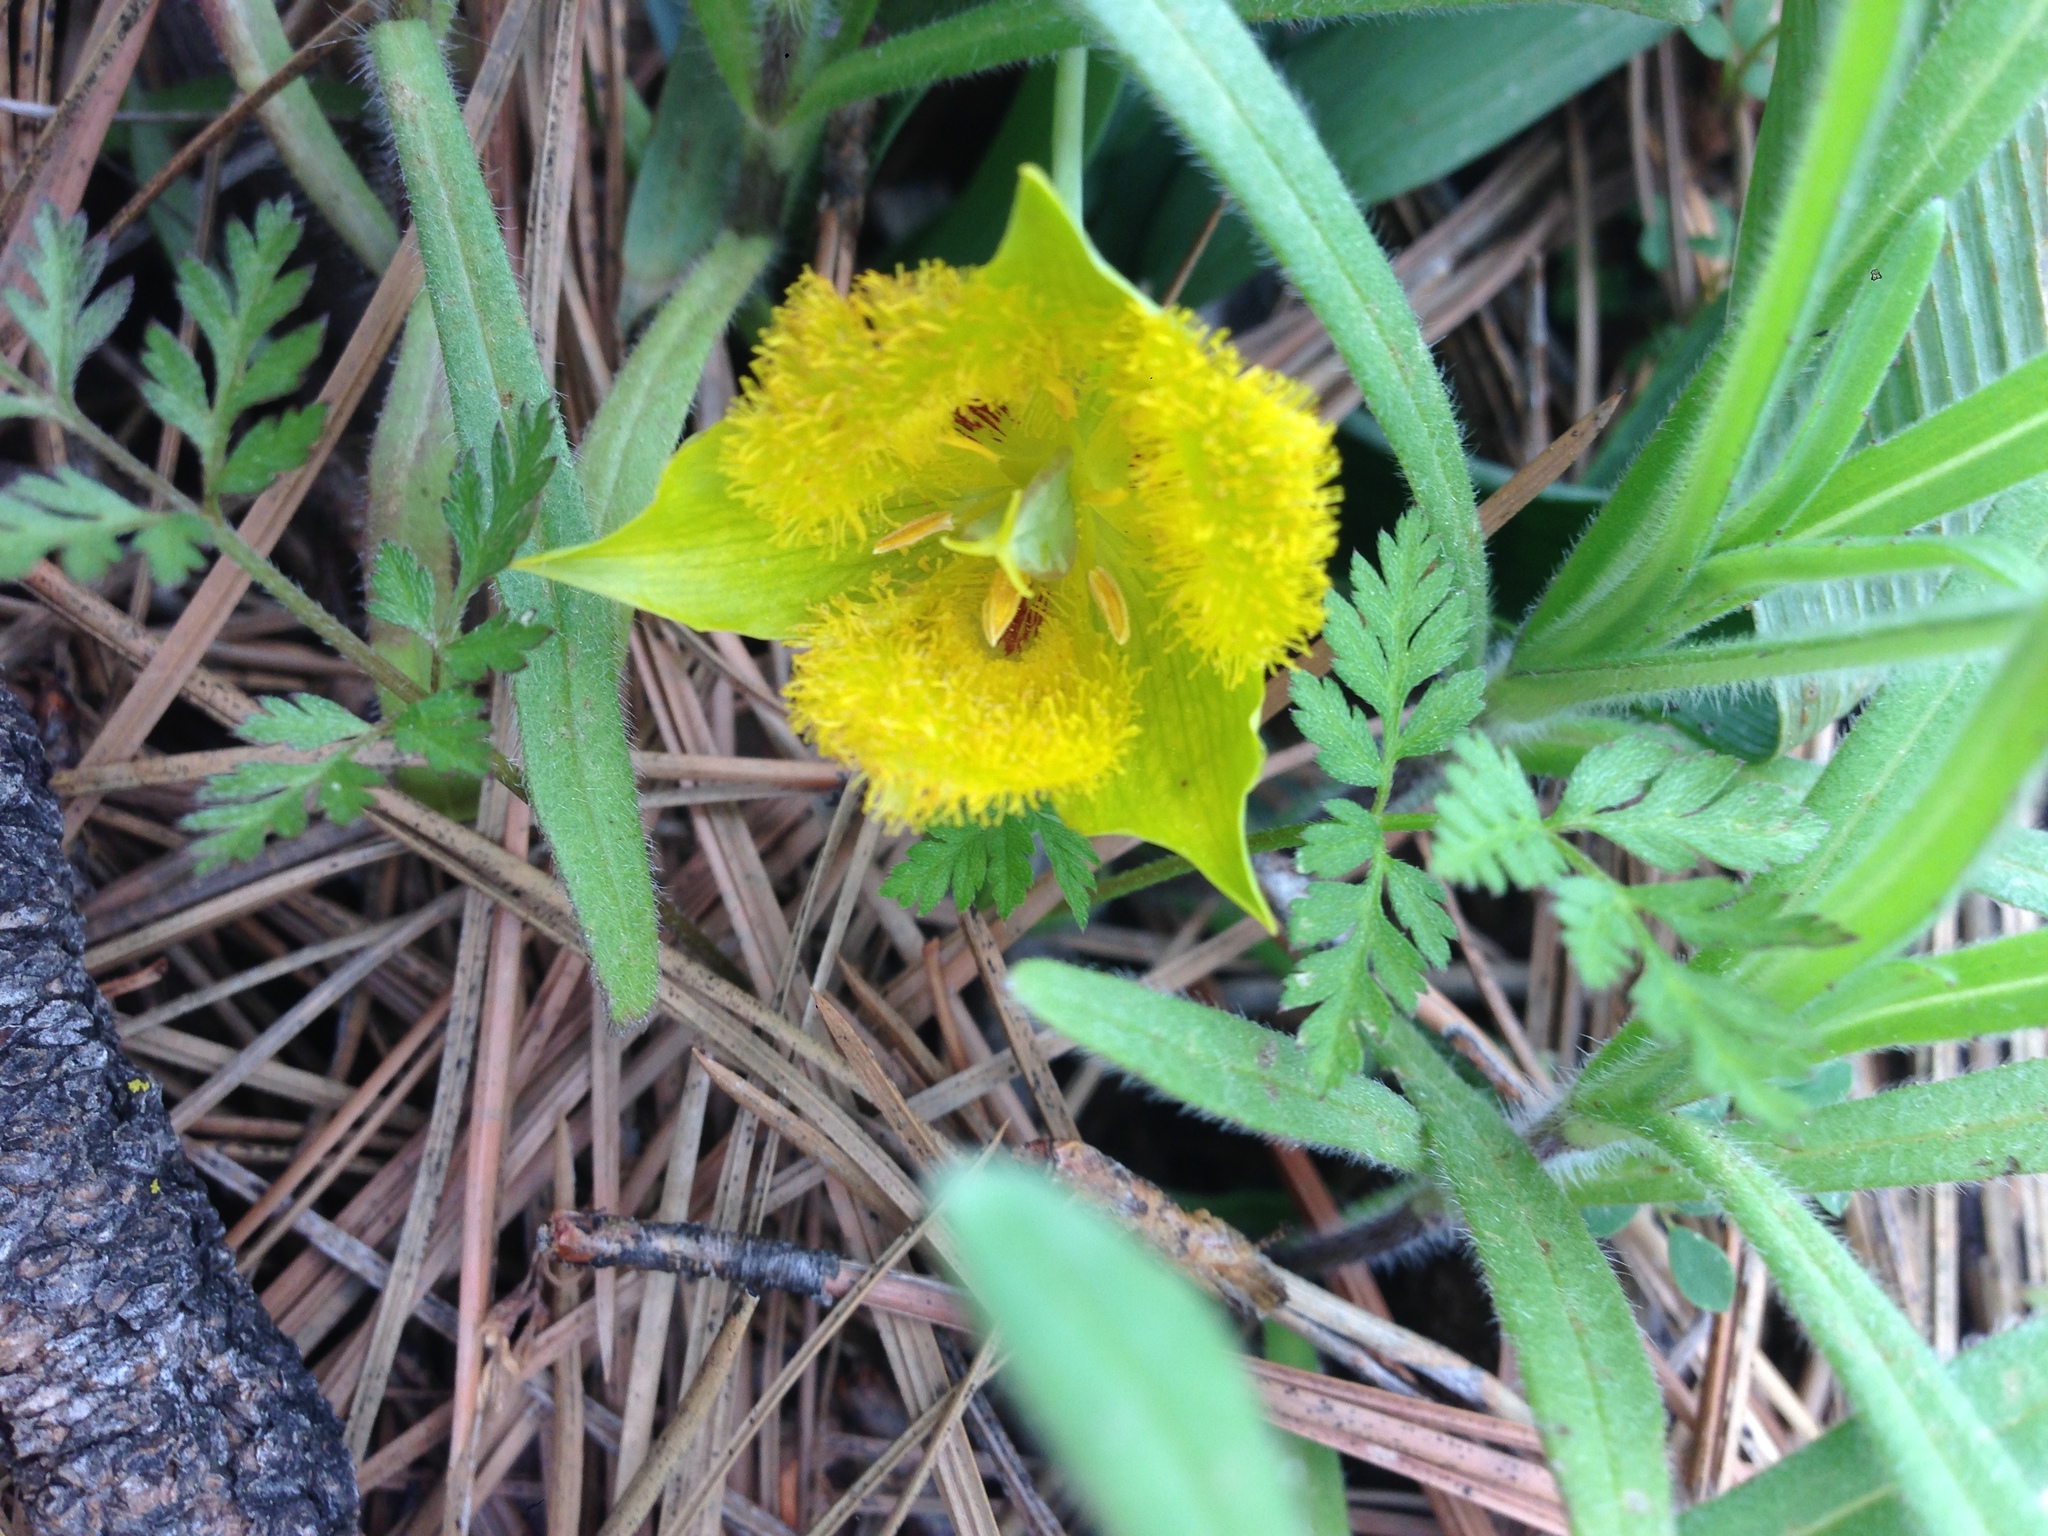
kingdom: Plantae
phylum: Tracheophyta
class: Liliopsida
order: Liliales
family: Liliaceae
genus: Calochortus
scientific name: Calochortus monophyllus
